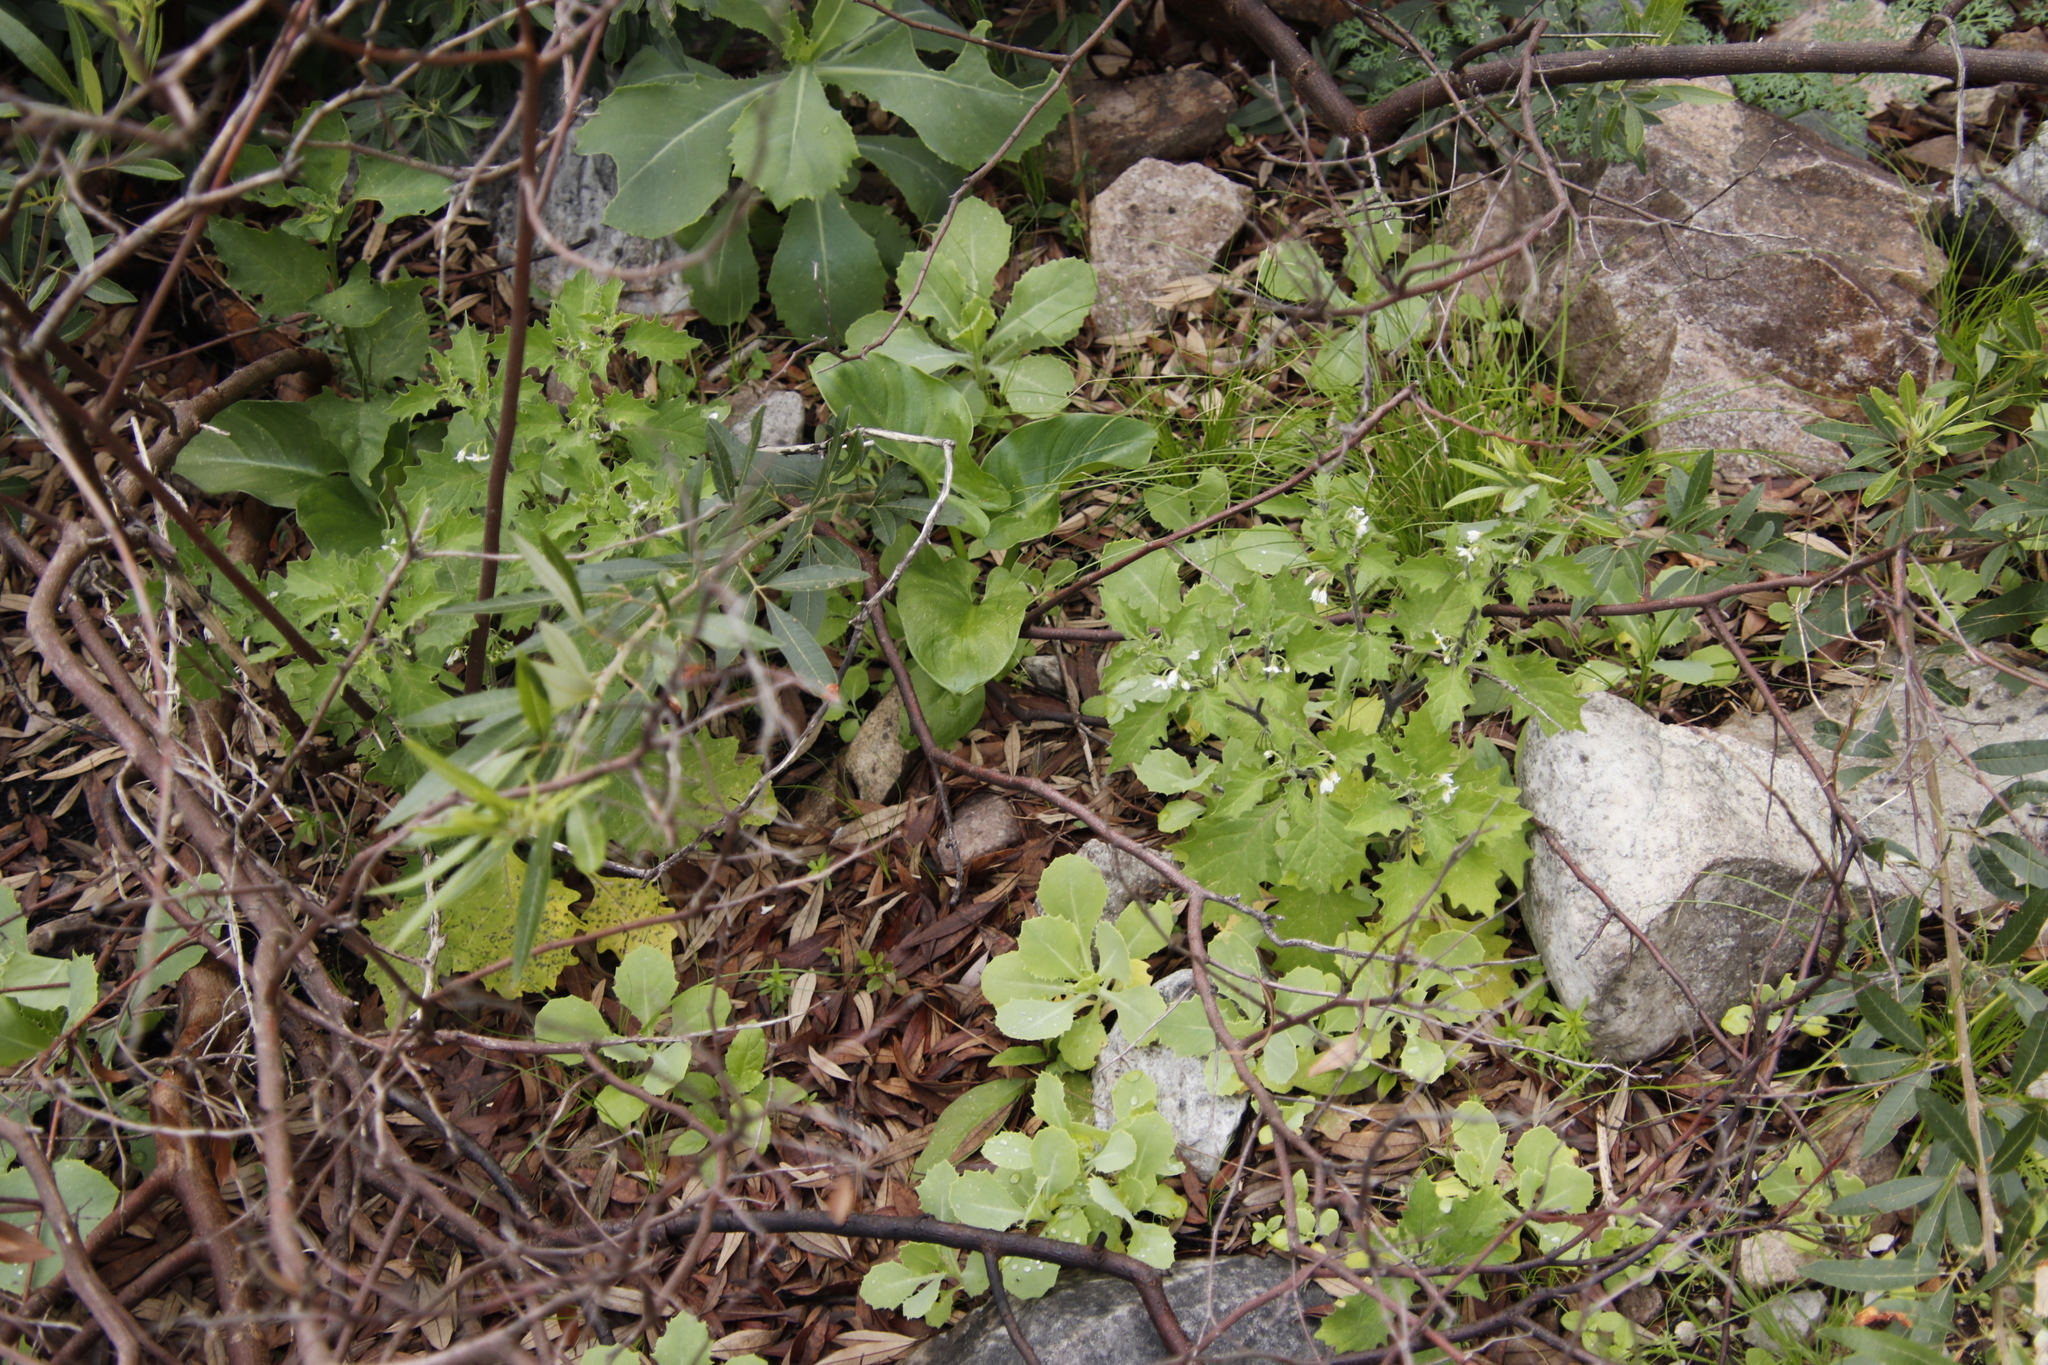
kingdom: Plantae
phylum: Tracheophyta
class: Magnoliopsida
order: Solanales
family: Solanaceae
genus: Solanum
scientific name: Solanum retroflexum
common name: Wonderberry
